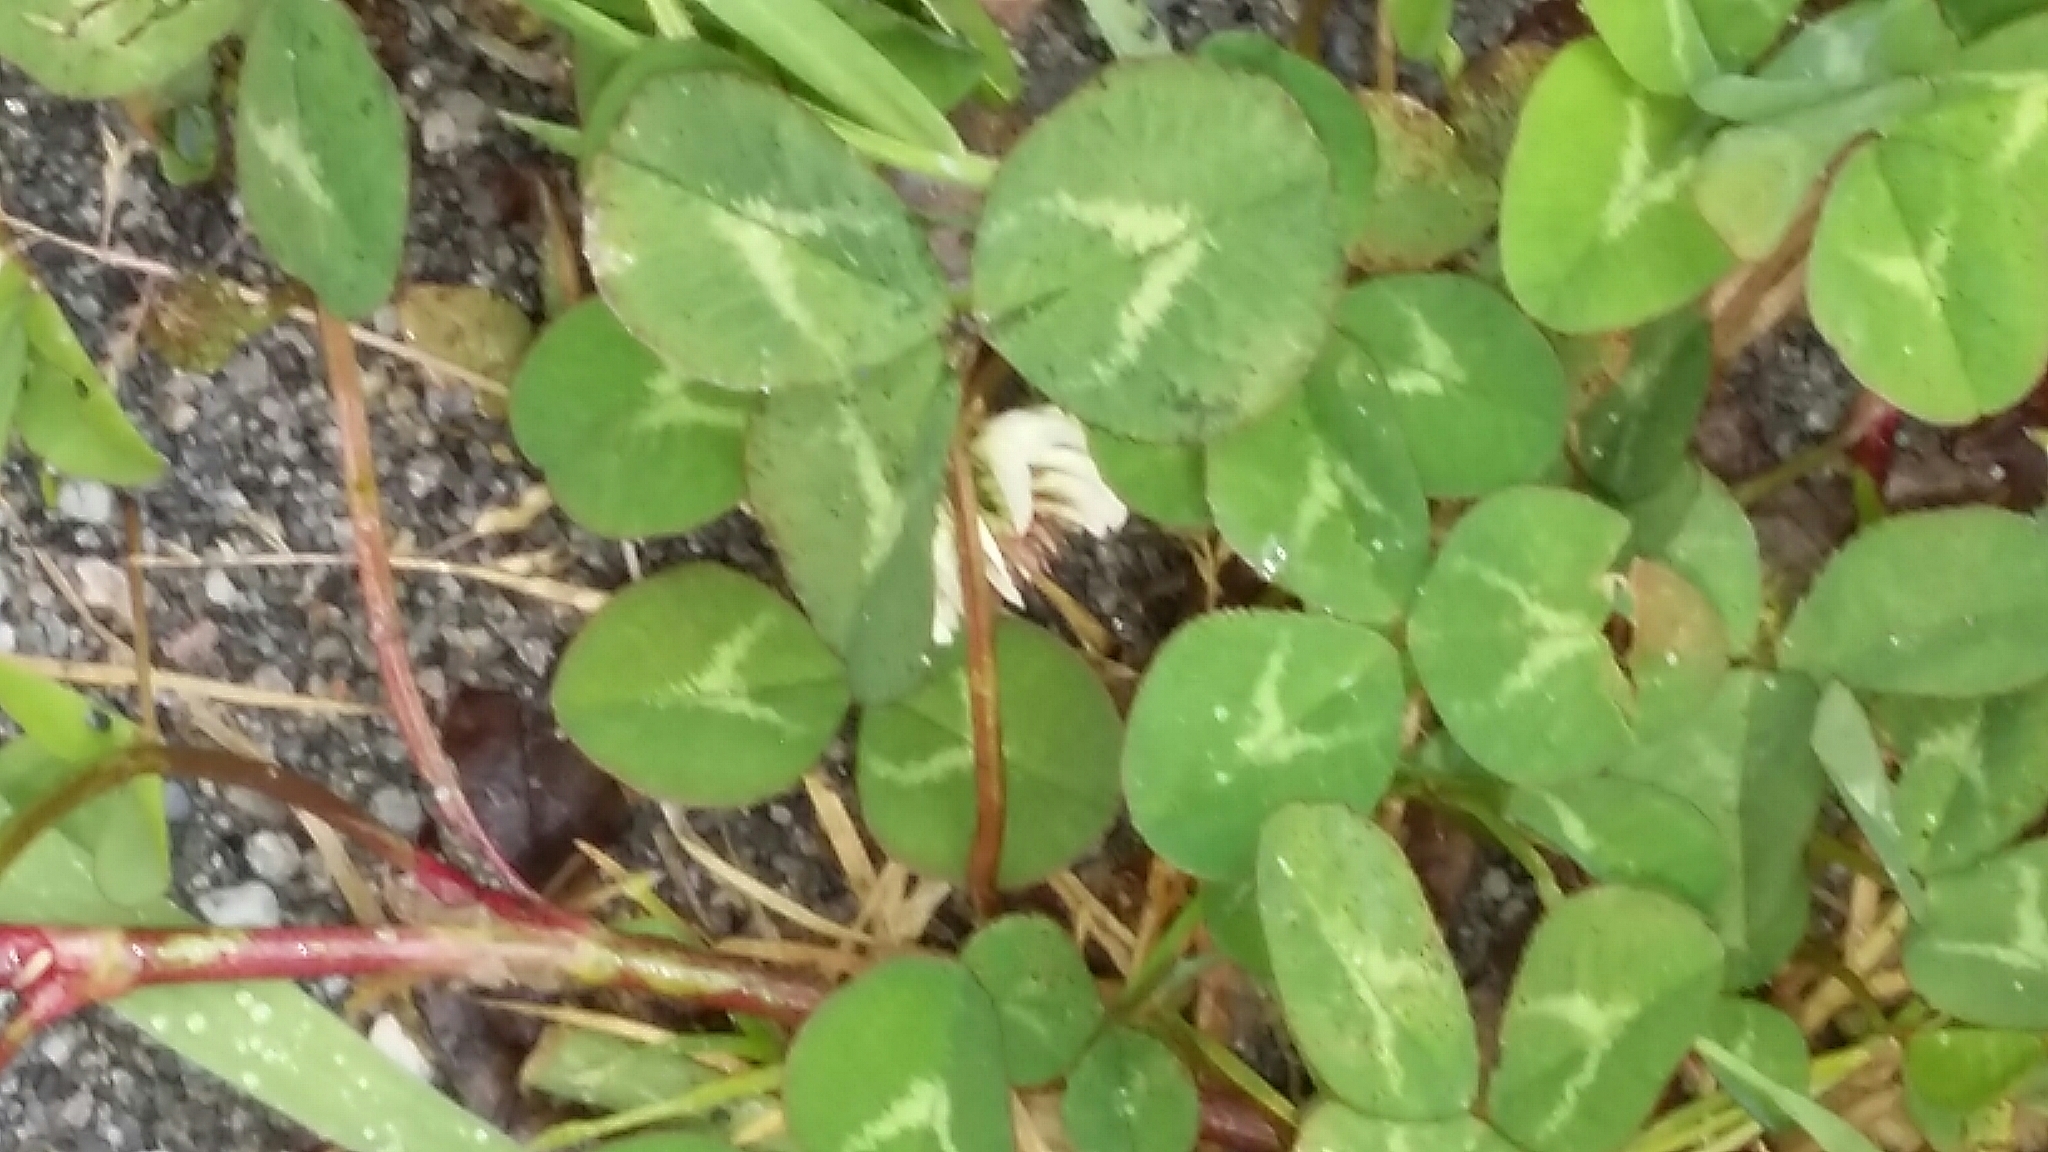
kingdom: Plantae
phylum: Tracheophyta
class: Magnoliopsida
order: Fabales
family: Fabaceae
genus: Trifolium
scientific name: Trifolium repens
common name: White clover
